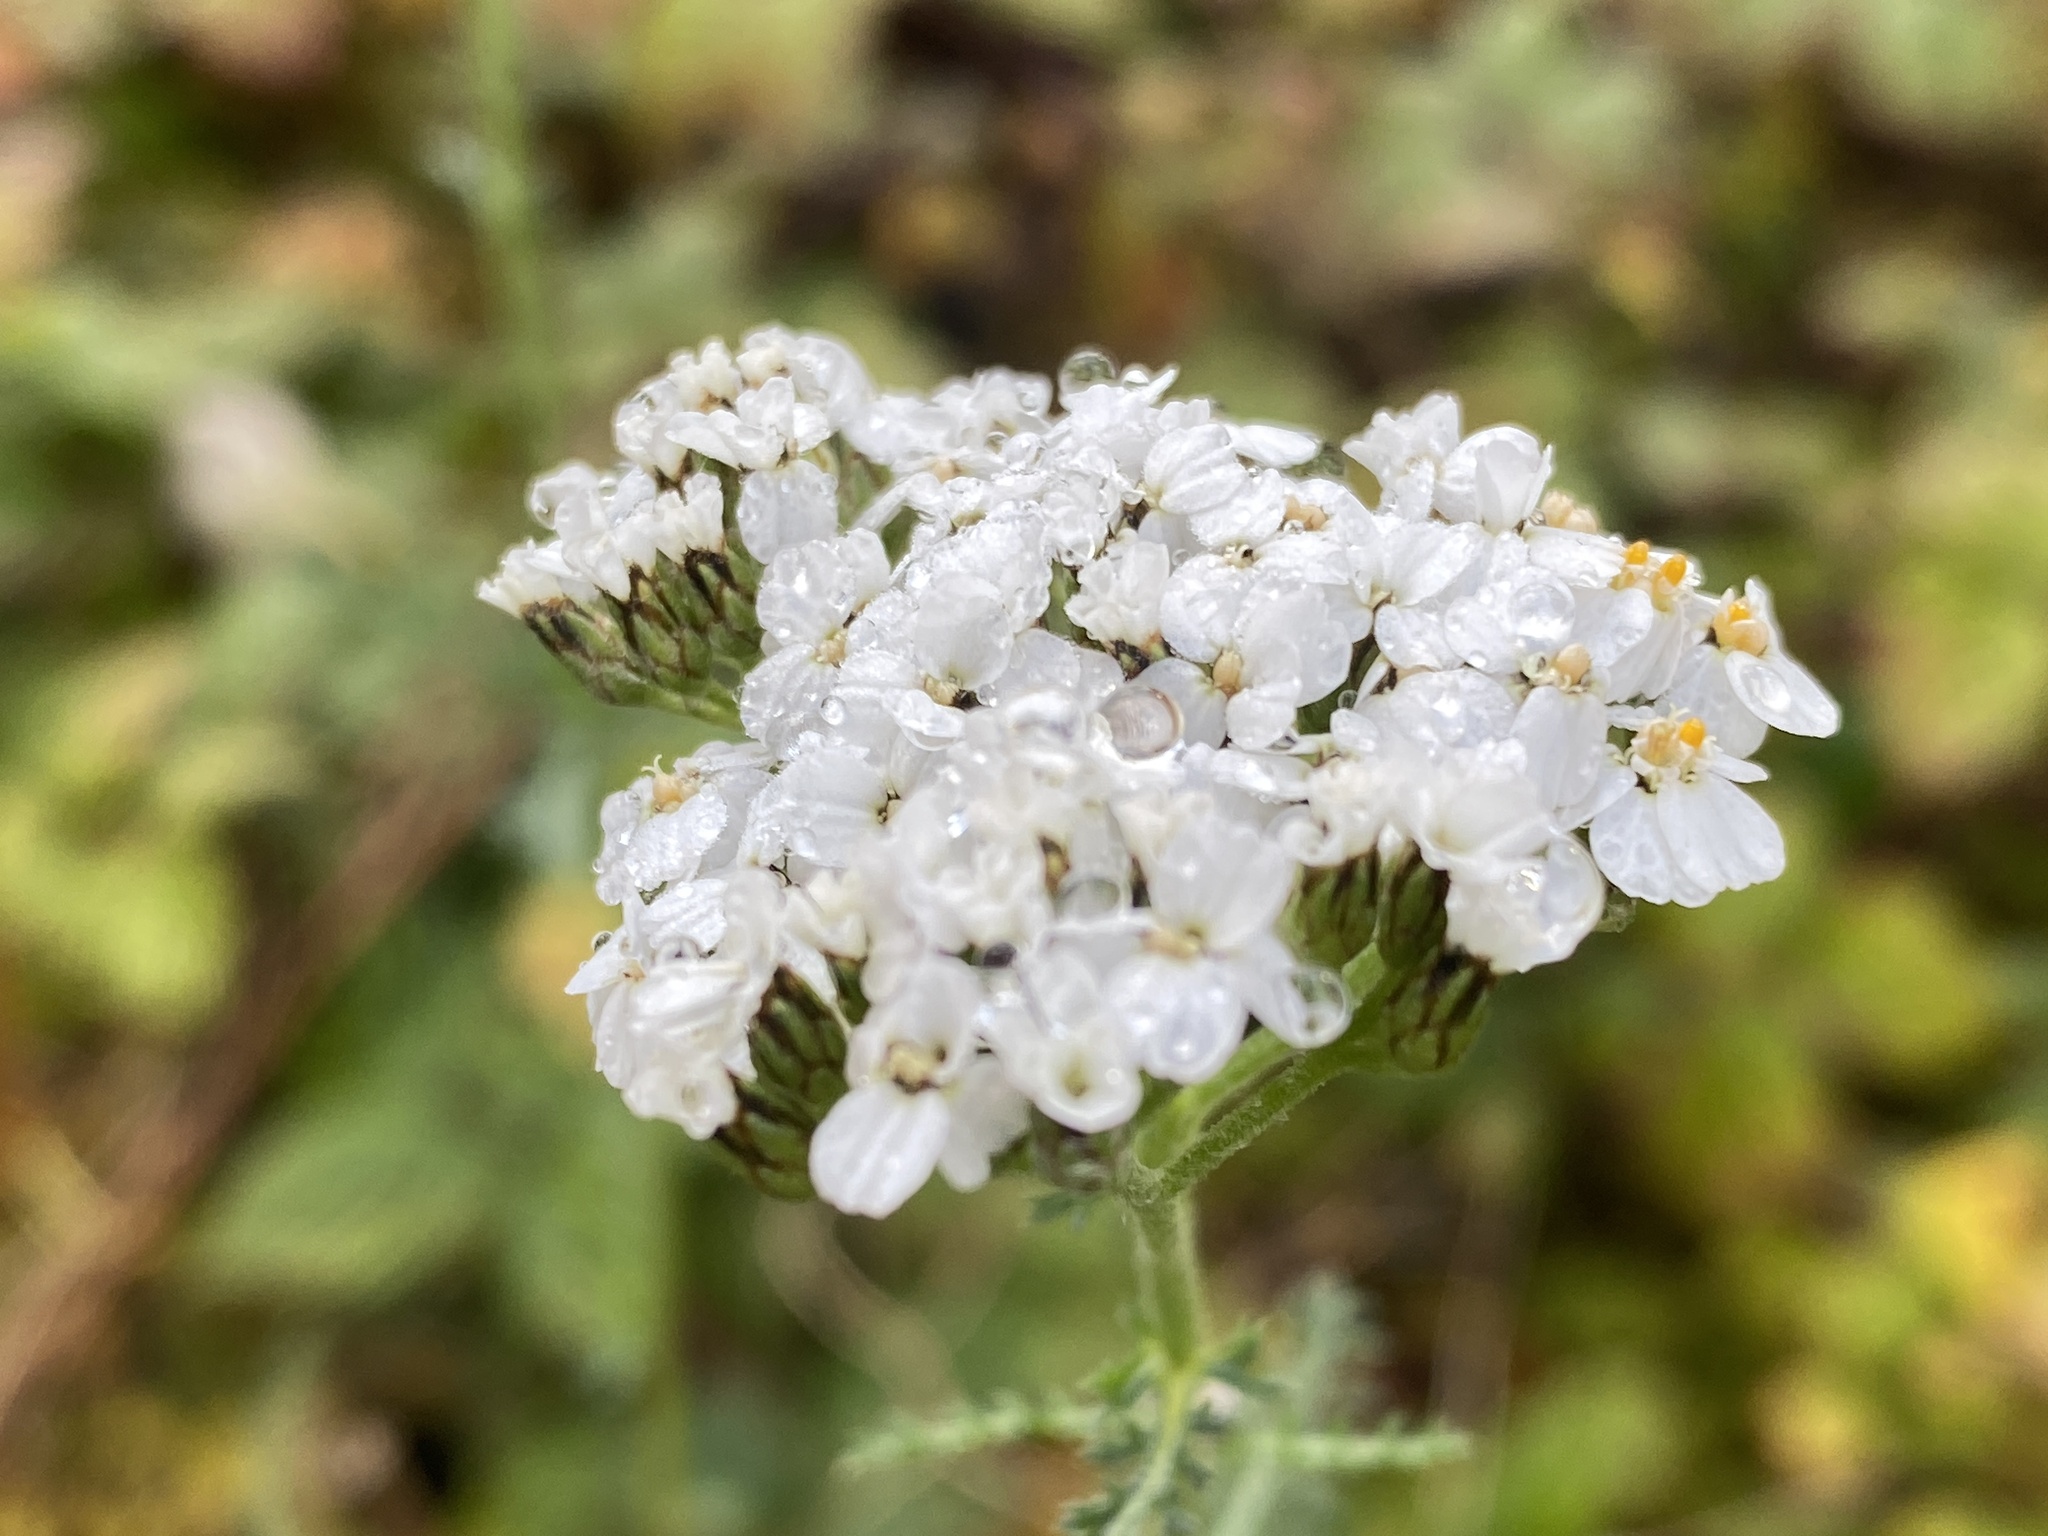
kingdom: Plantae
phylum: Tracheophyta
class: Magnoliopsida
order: Asterales
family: Asteraceae
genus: Achillea
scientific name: Achillea millefolium
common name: Yarrow
